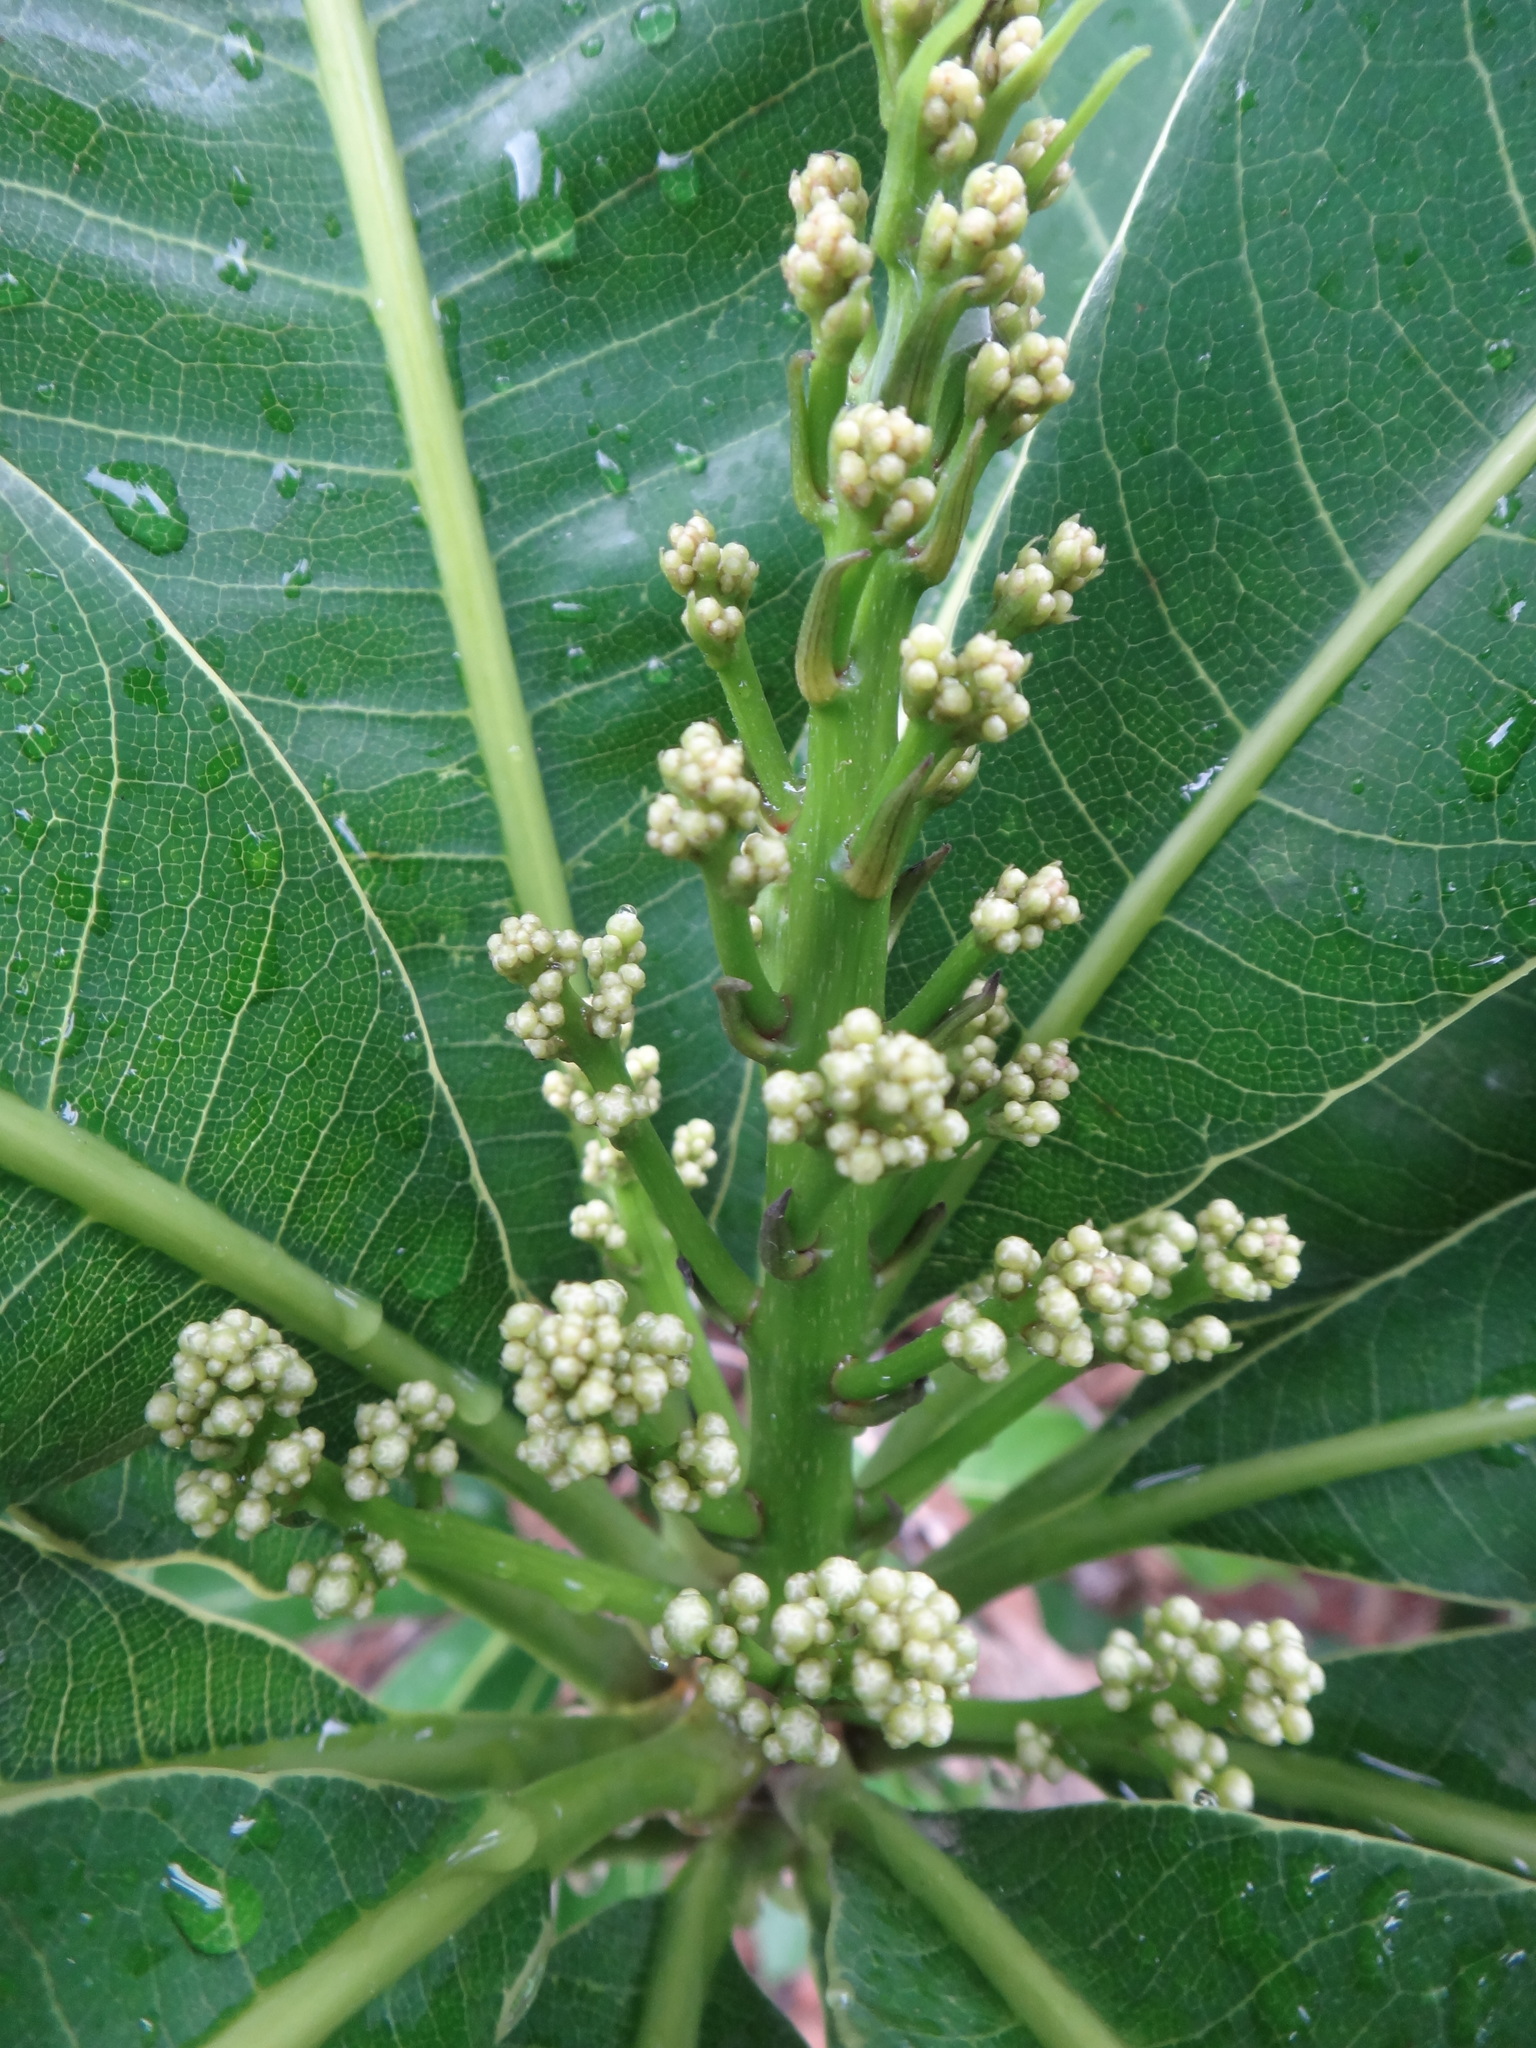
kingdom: Plantae
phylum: Tracheophyta
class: Magnoliopsida
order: Sapindales
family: Anacardiaceae
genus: Semecarpus
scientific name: Semecarpus longifolius
